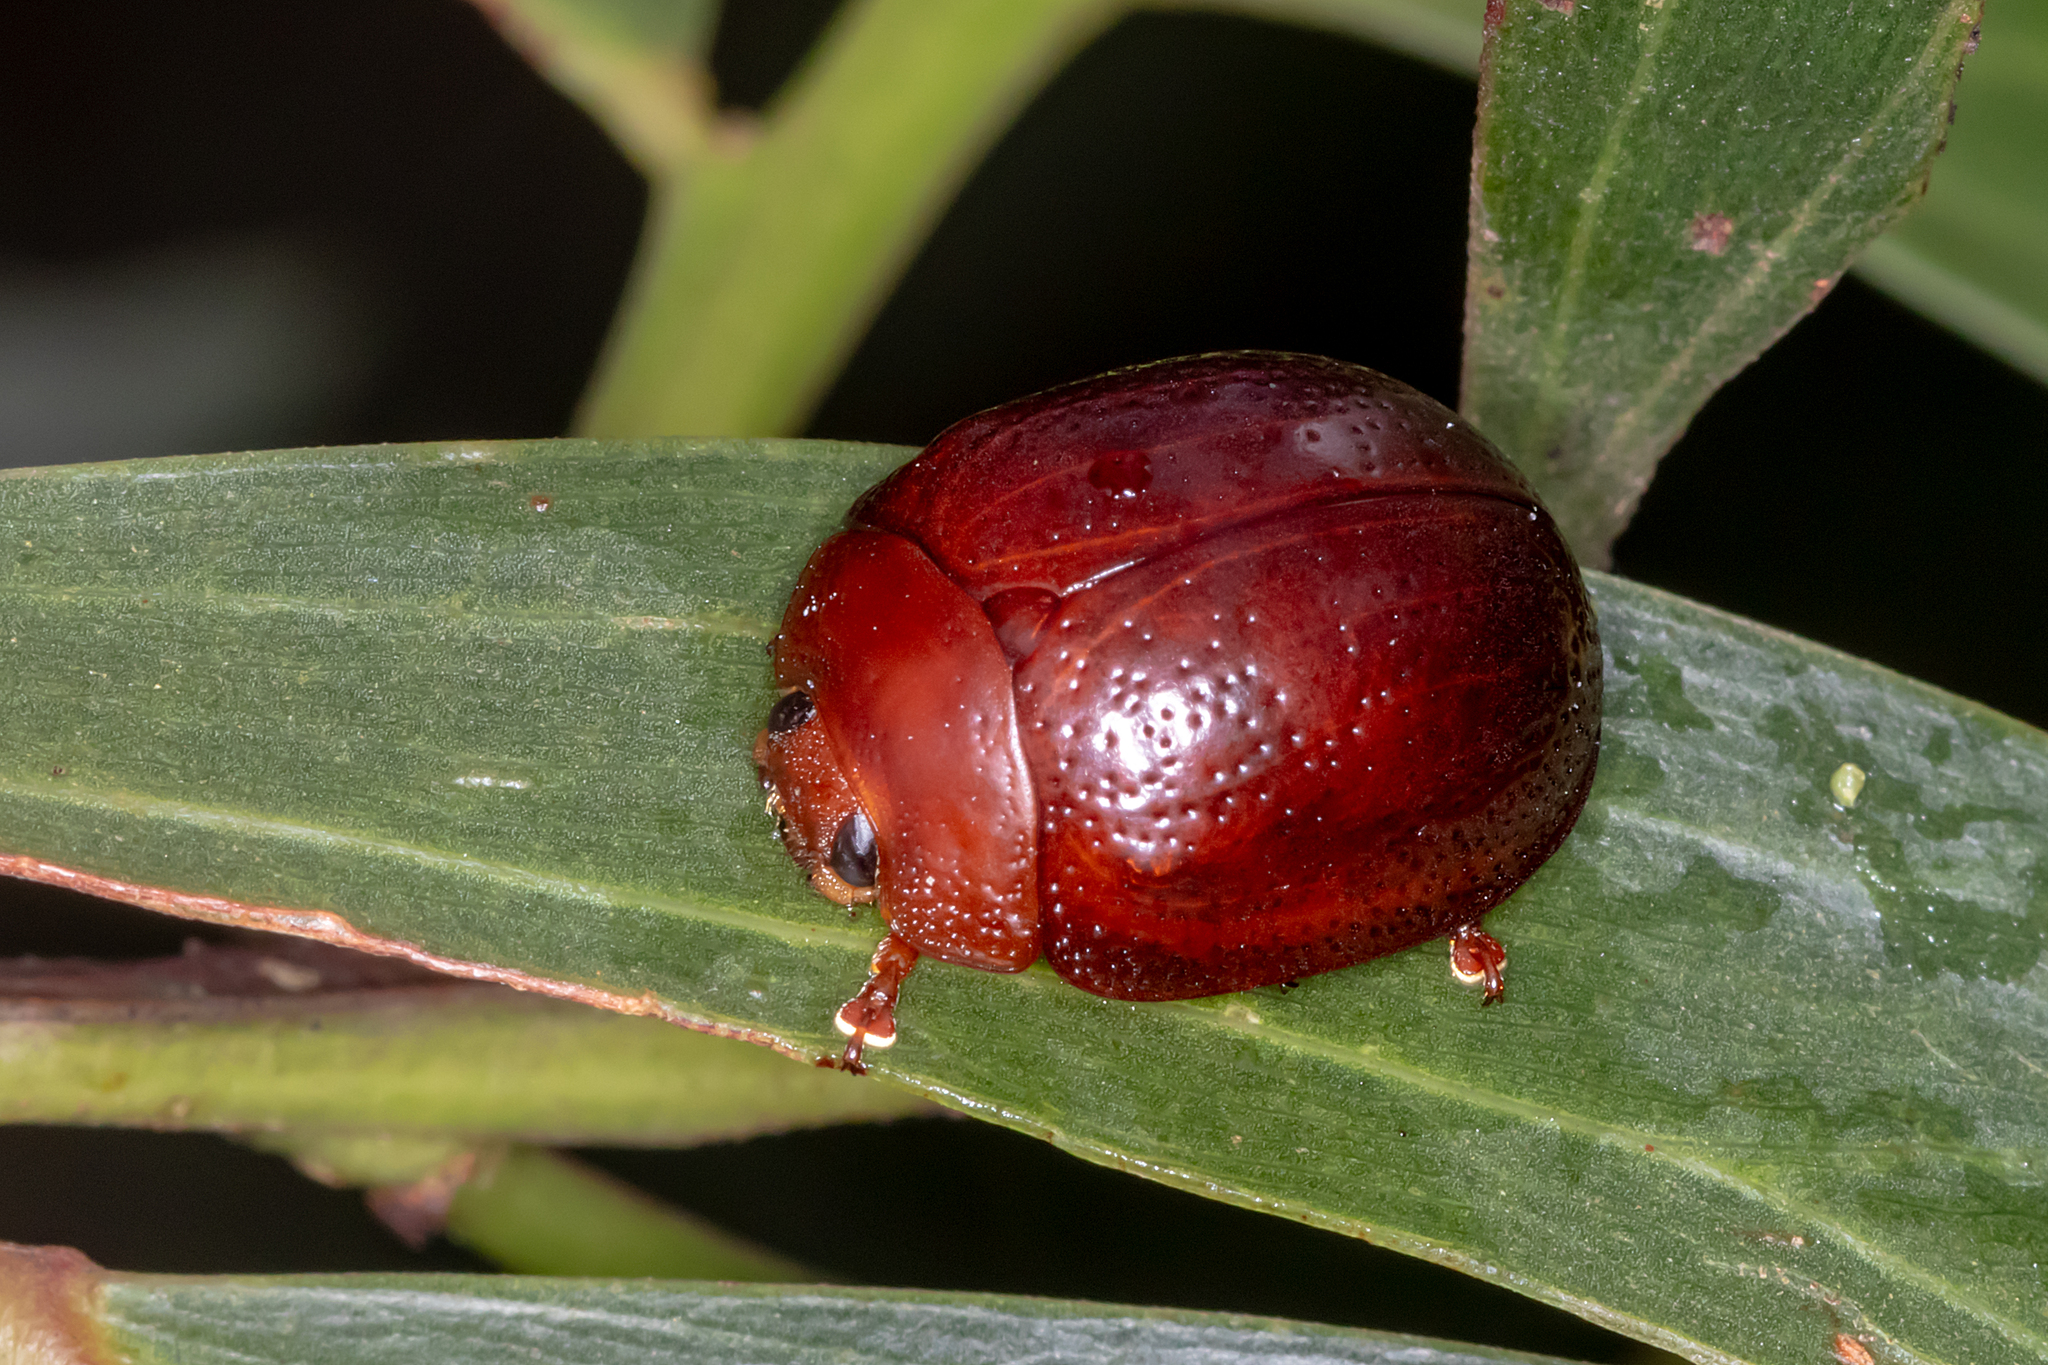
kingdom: Animalia
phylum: Arthropoda
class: Insecta
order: Coleoptera
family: Chrysomelidae
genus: Dicranosterna
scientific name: Dicranosterna
